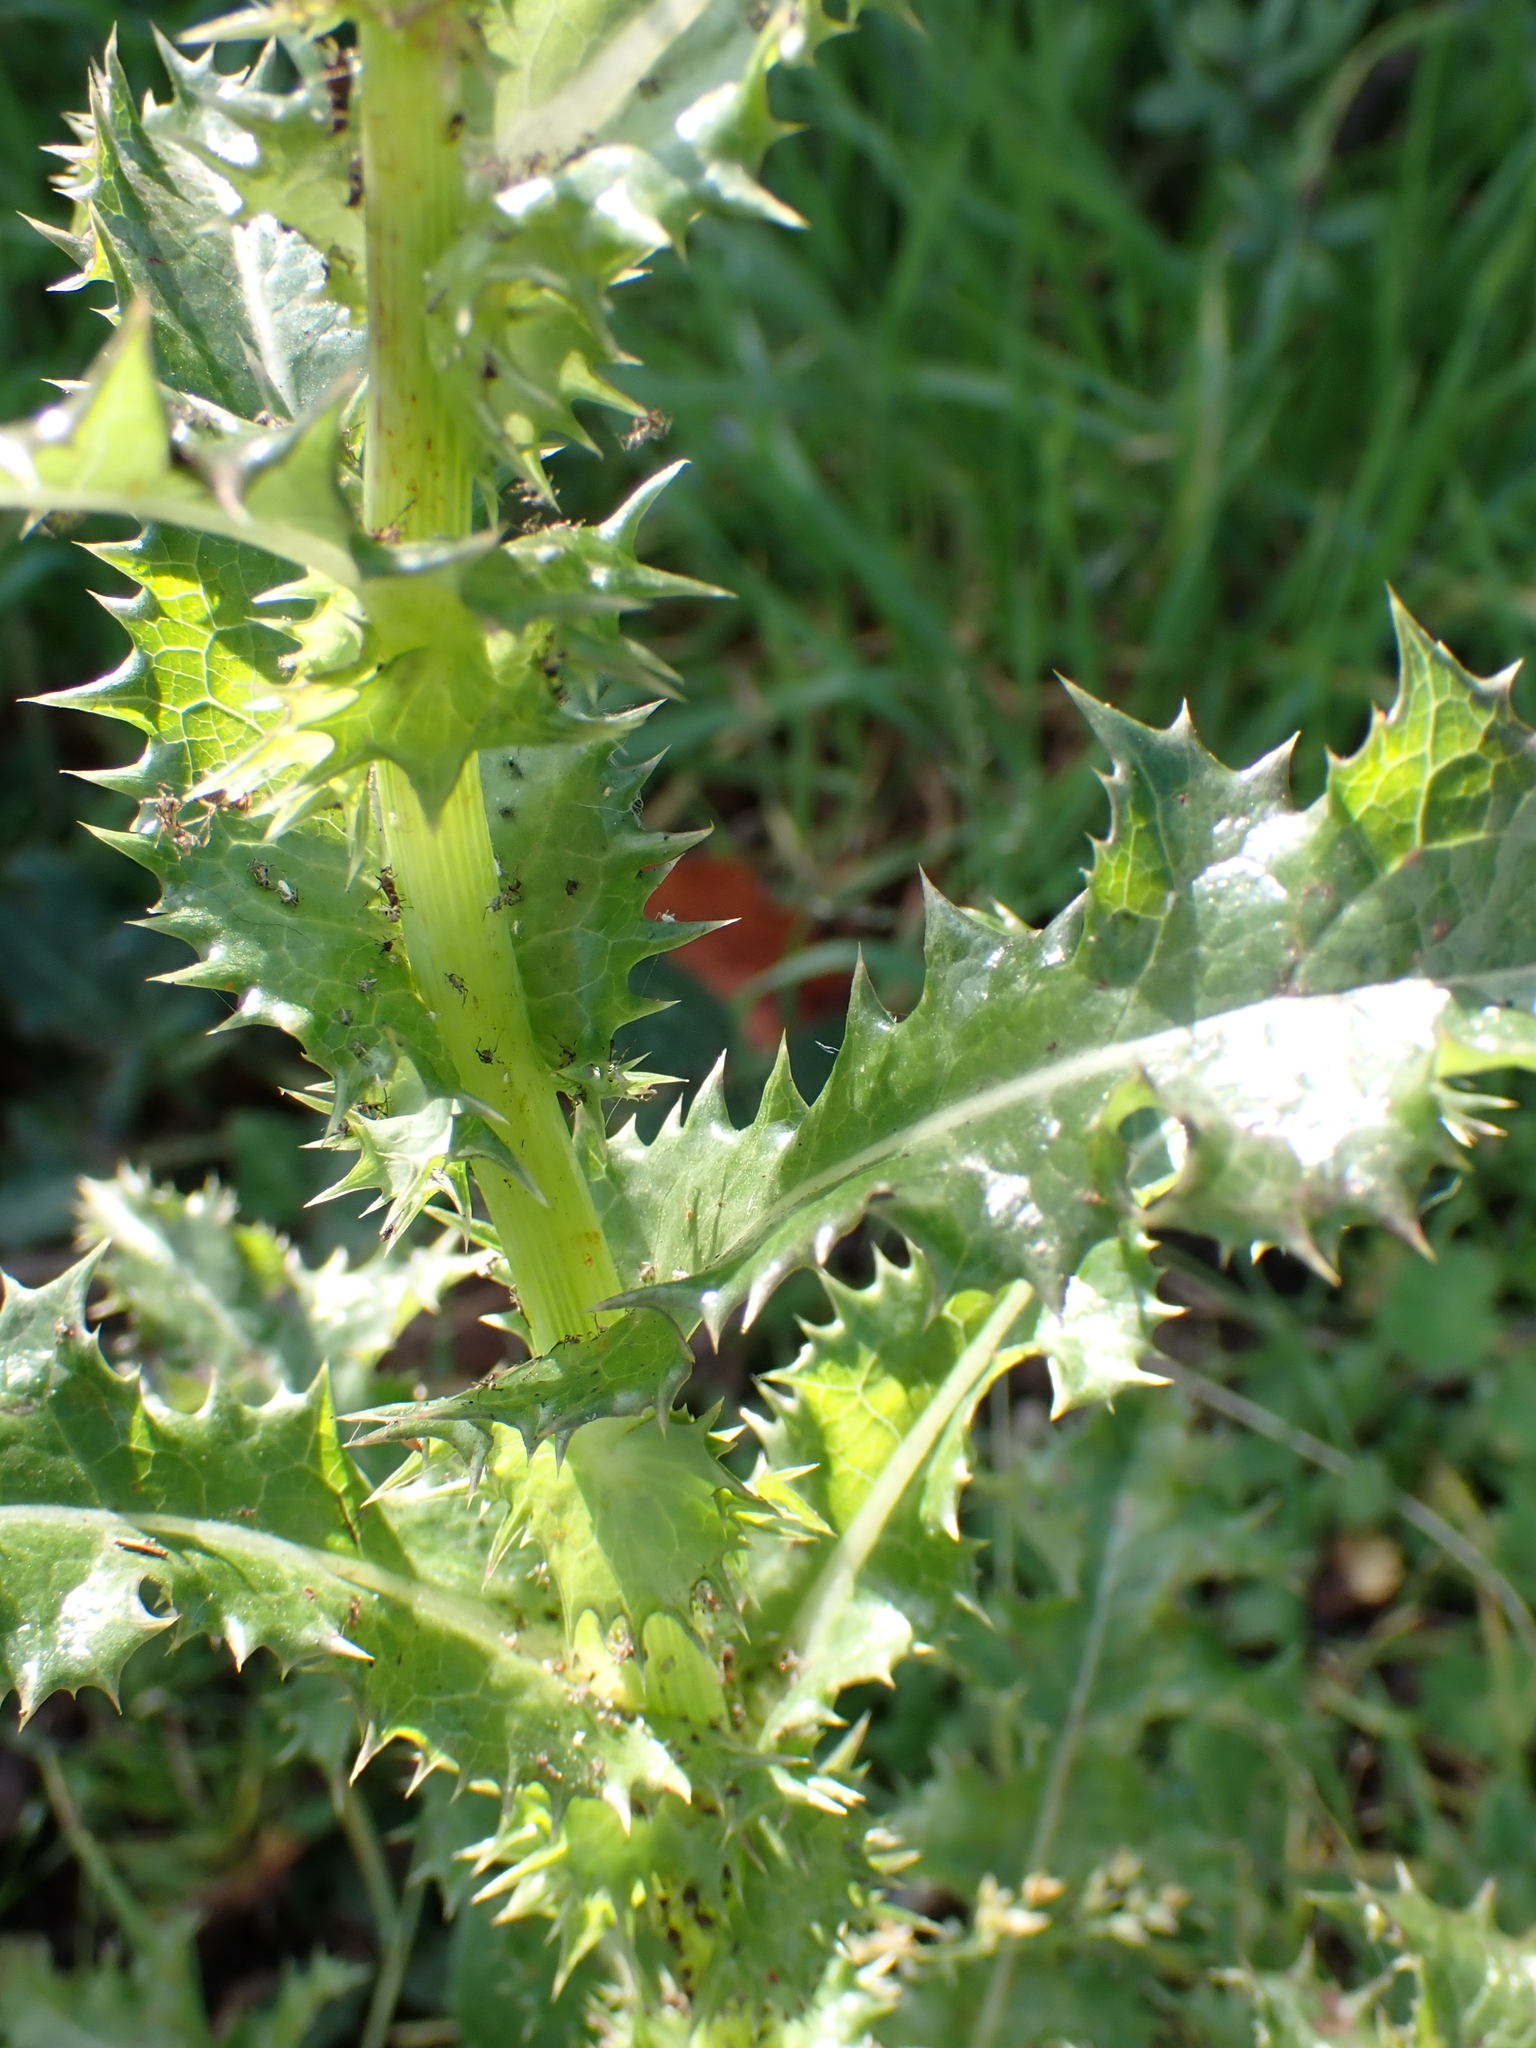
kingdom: Plantae
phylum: Tracheophyta
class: Magnoliopsida
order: Asterales
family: Asteraceae
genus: Sonchus
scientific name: Sonchus asper
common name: Prickly sow-thistle
